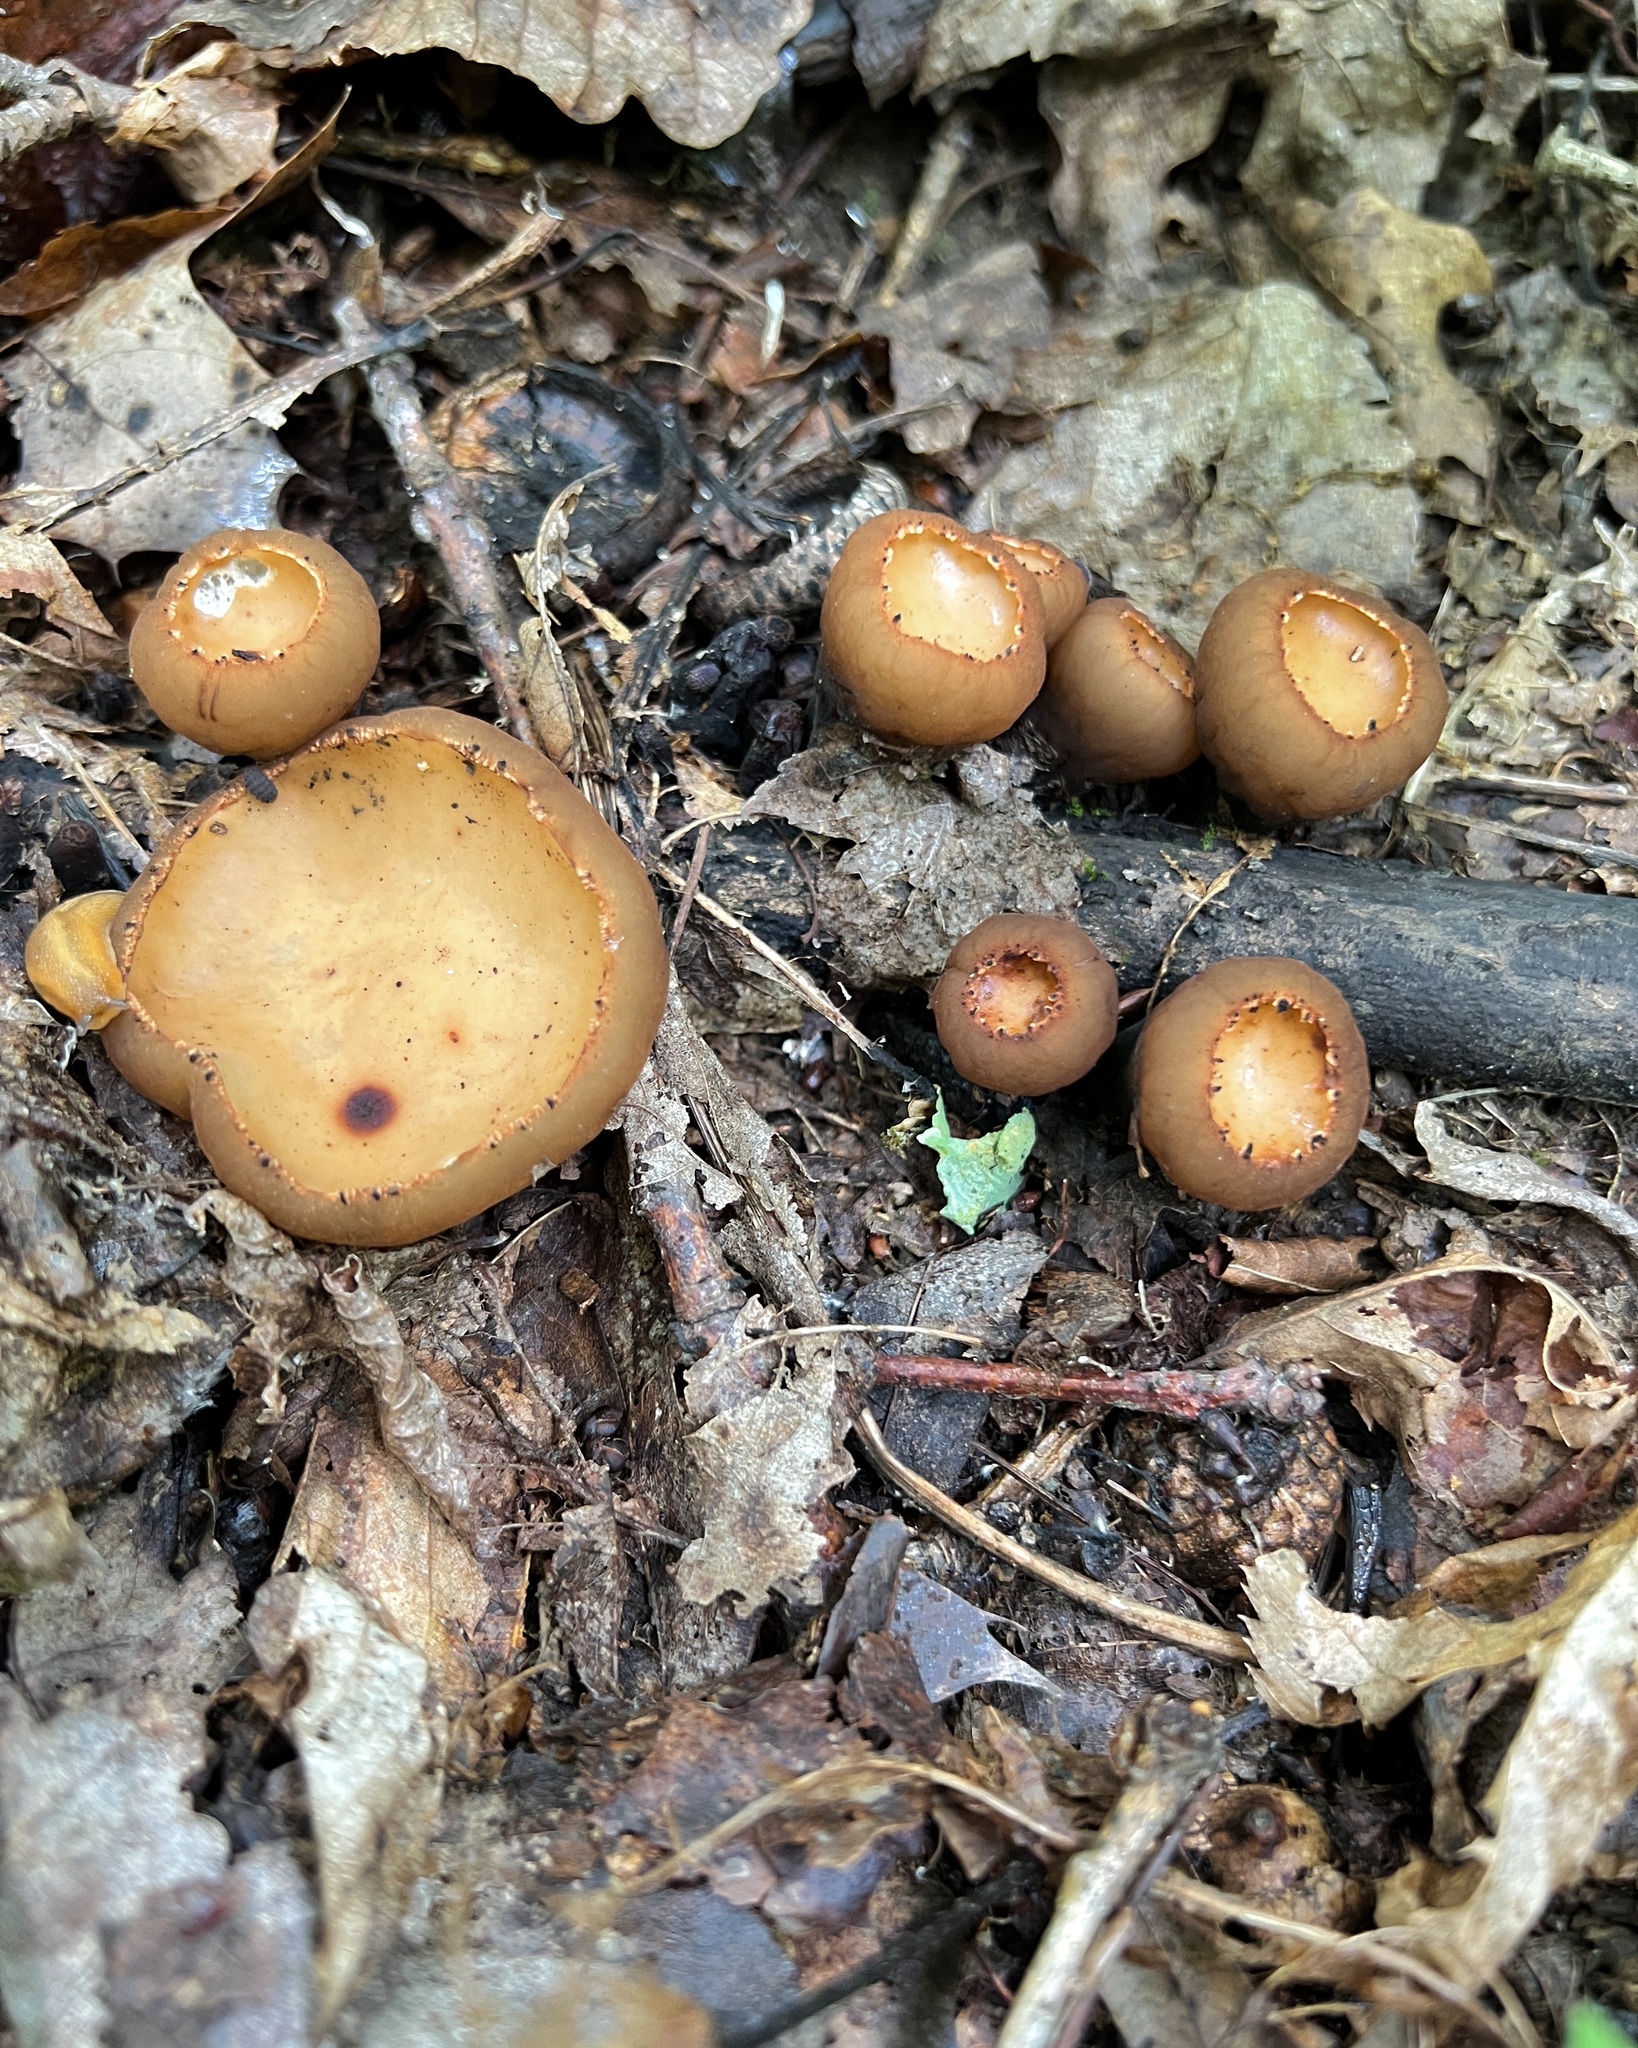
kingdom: Fungi
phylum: Ascomycota
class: Pezizomycetes
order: Pezizales
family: Sarcosomataceae
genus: Galiella
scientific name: Galiella rufa
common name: Hairy rubber cup
